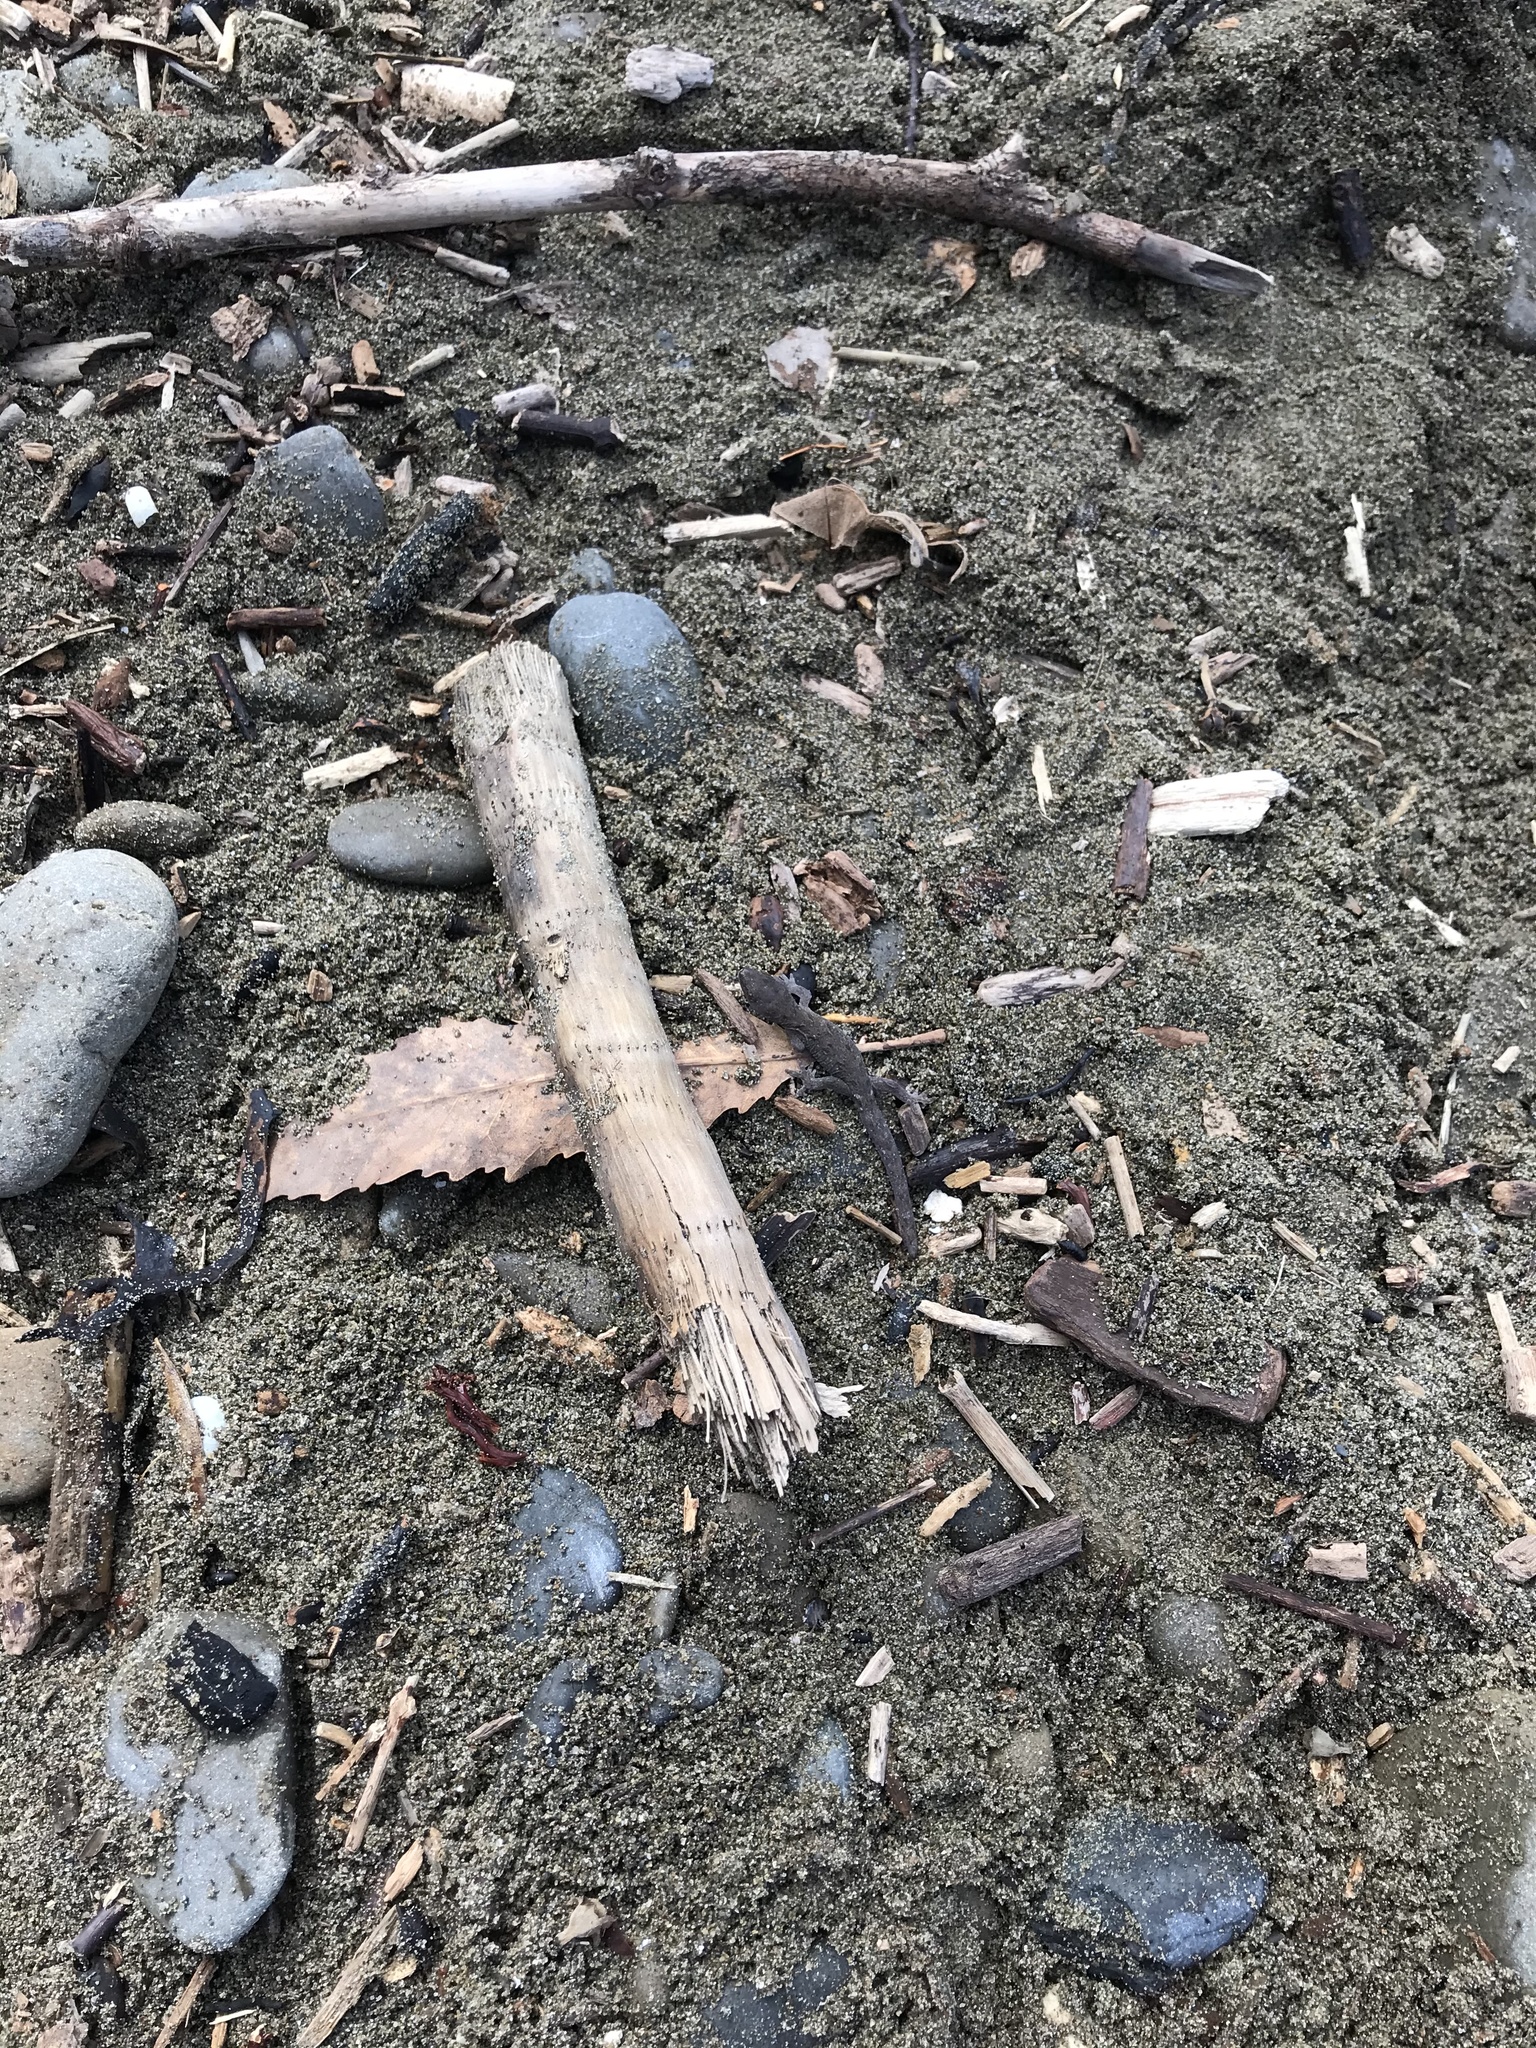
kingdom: Animalia
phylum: Chordata
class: Squamata
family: Diplodactylidae
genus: Woodworthia
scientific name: Woodworthia maculata
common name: Raukawa gecko
